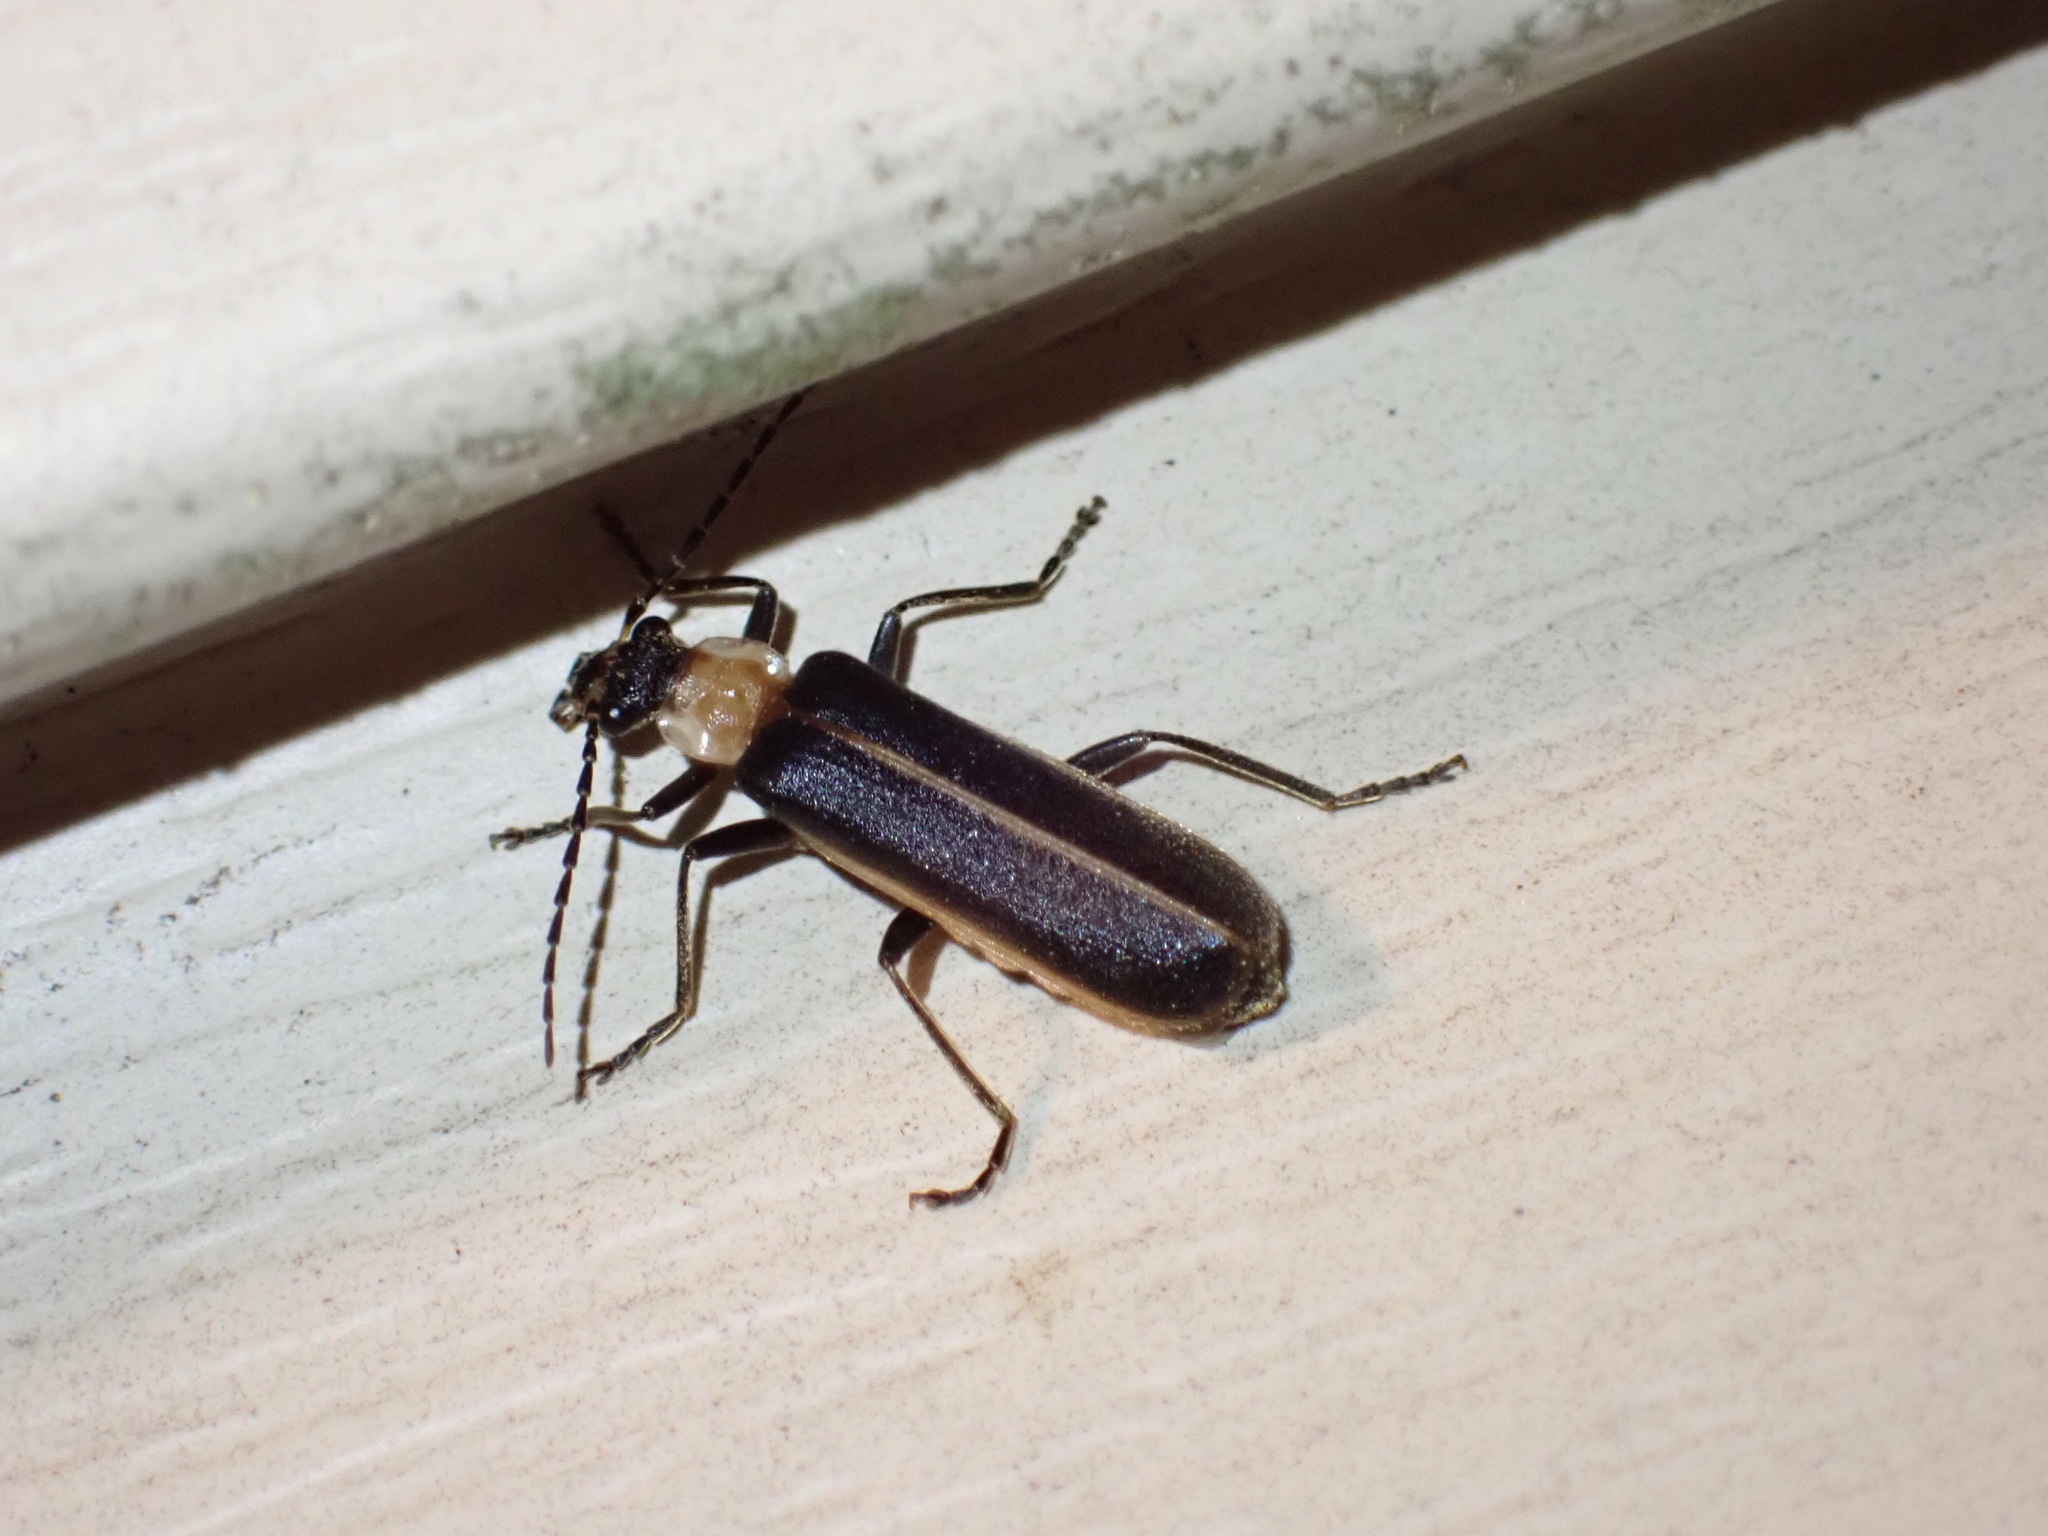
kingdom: Animalia
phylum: Arthropoda
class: Insecta
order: Coleoptera
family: Cantharidae
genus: Podabrus
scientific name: Podabrus flavicollis
